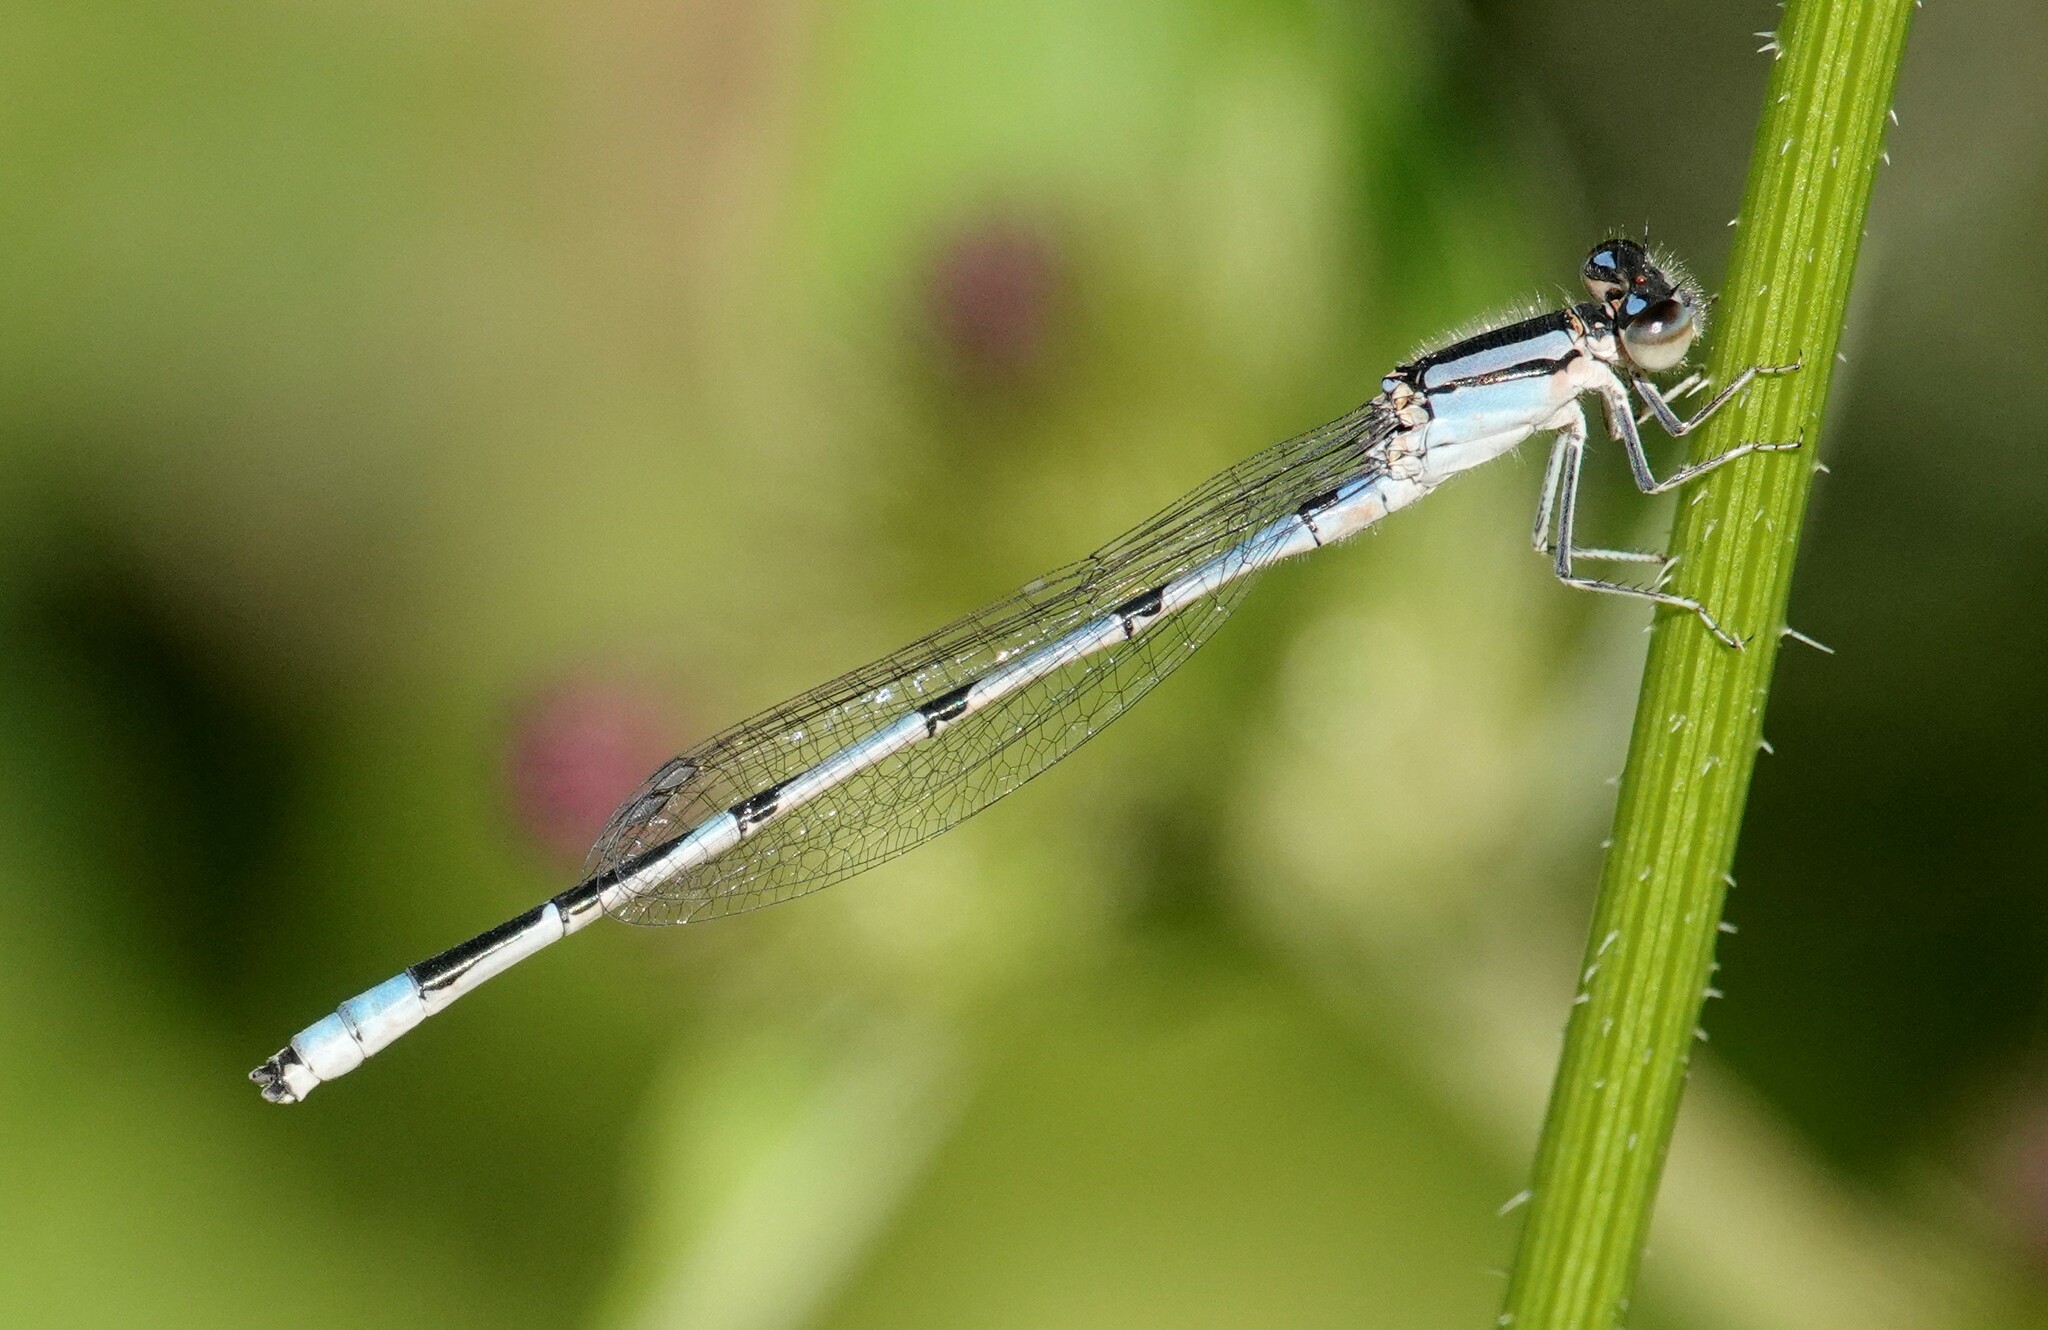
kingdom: Animalia
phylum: Arthropoda
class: Insecta
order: Odonata
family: Coenagrionidae
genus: Enallagma
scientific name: Enallagma civile
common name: Damselfly
